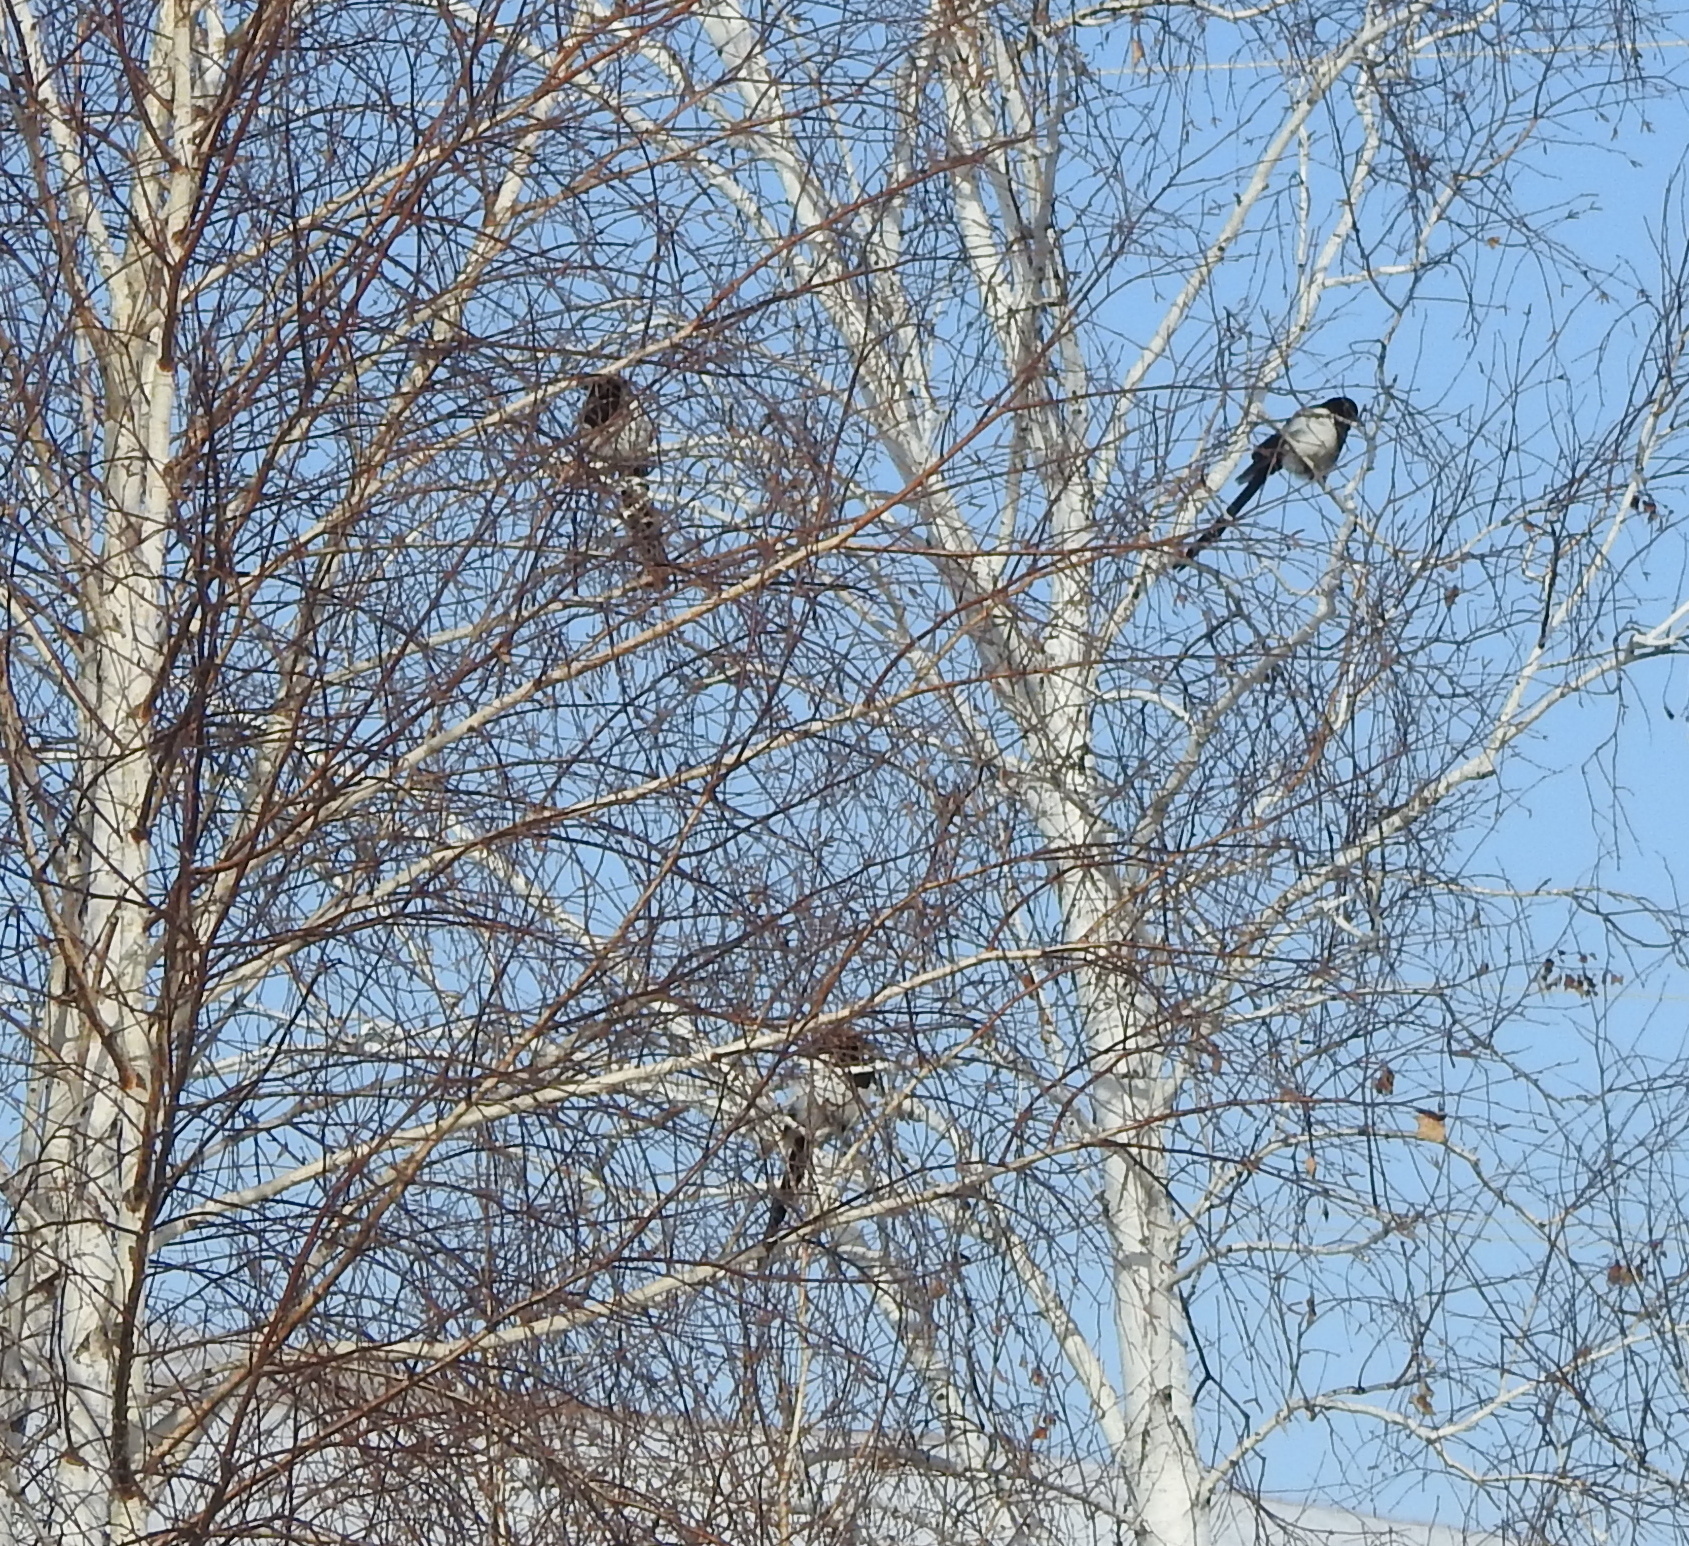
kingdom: Animalia
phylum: Chordata
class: Aves
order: Passeriformes
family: Corvidae
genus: Pica
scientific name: Pica pica
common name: Eurasian magpie
